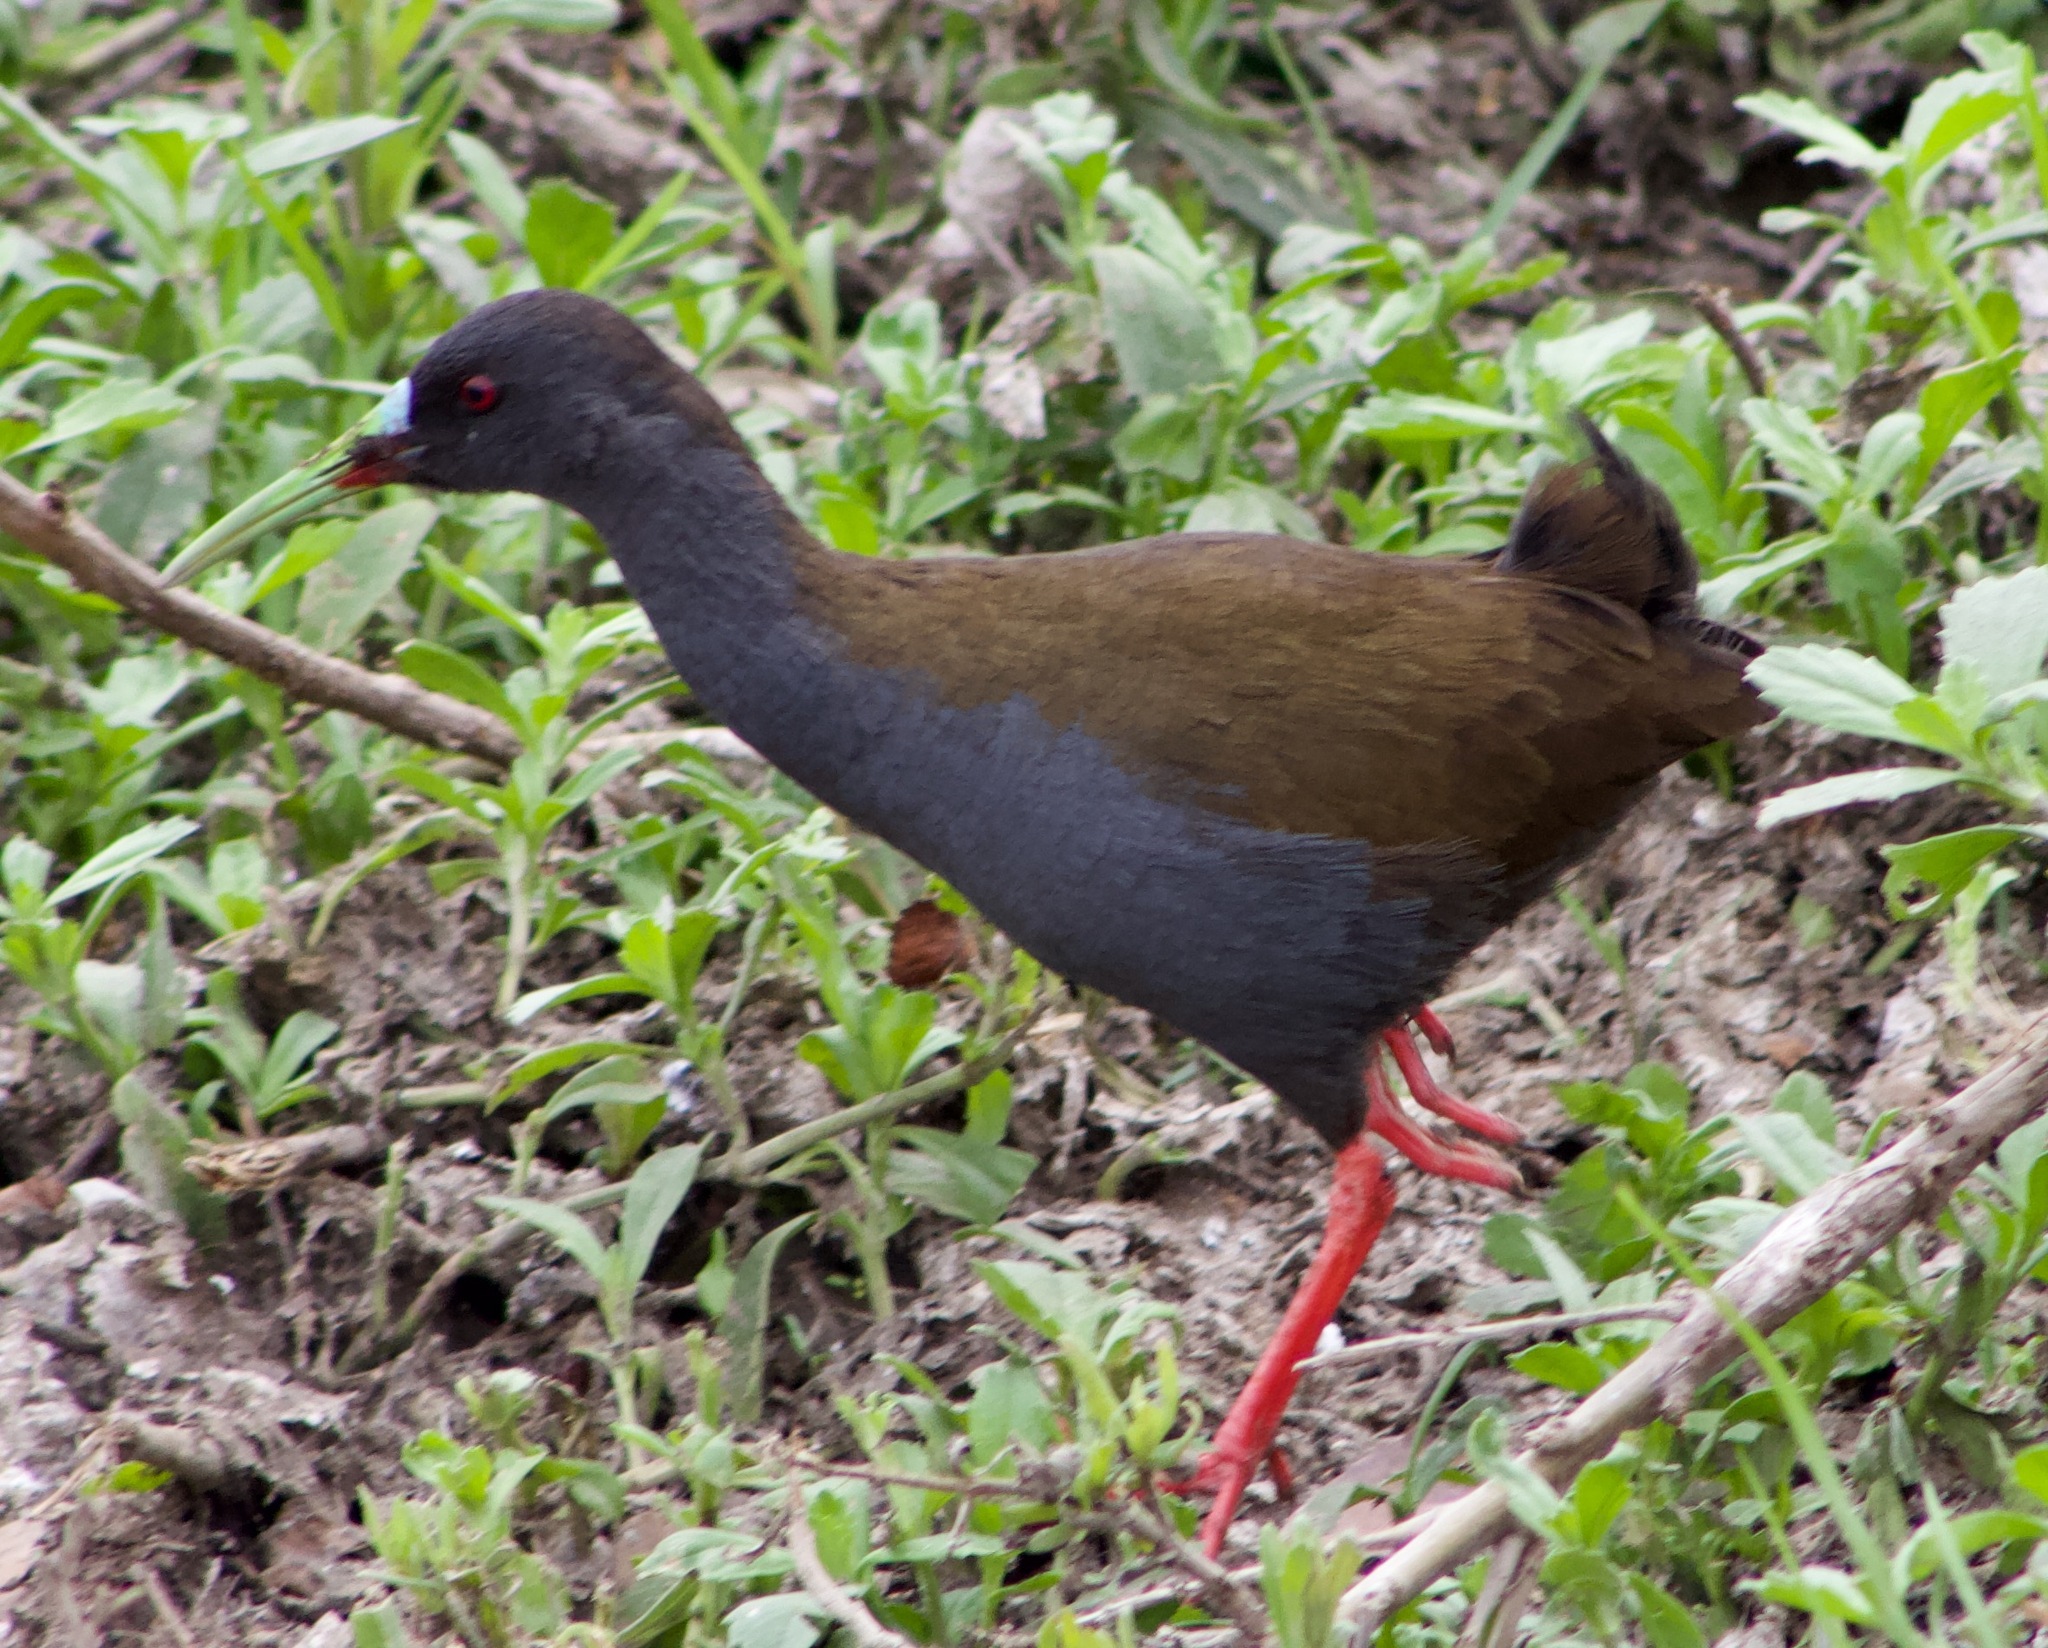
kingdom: Animalia
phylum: Chordata
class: Aves
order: Gruiformes
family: Rallidae
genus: Pardirallus
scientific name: Pardirallus sanguinolentus
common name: Plumbeous rail
